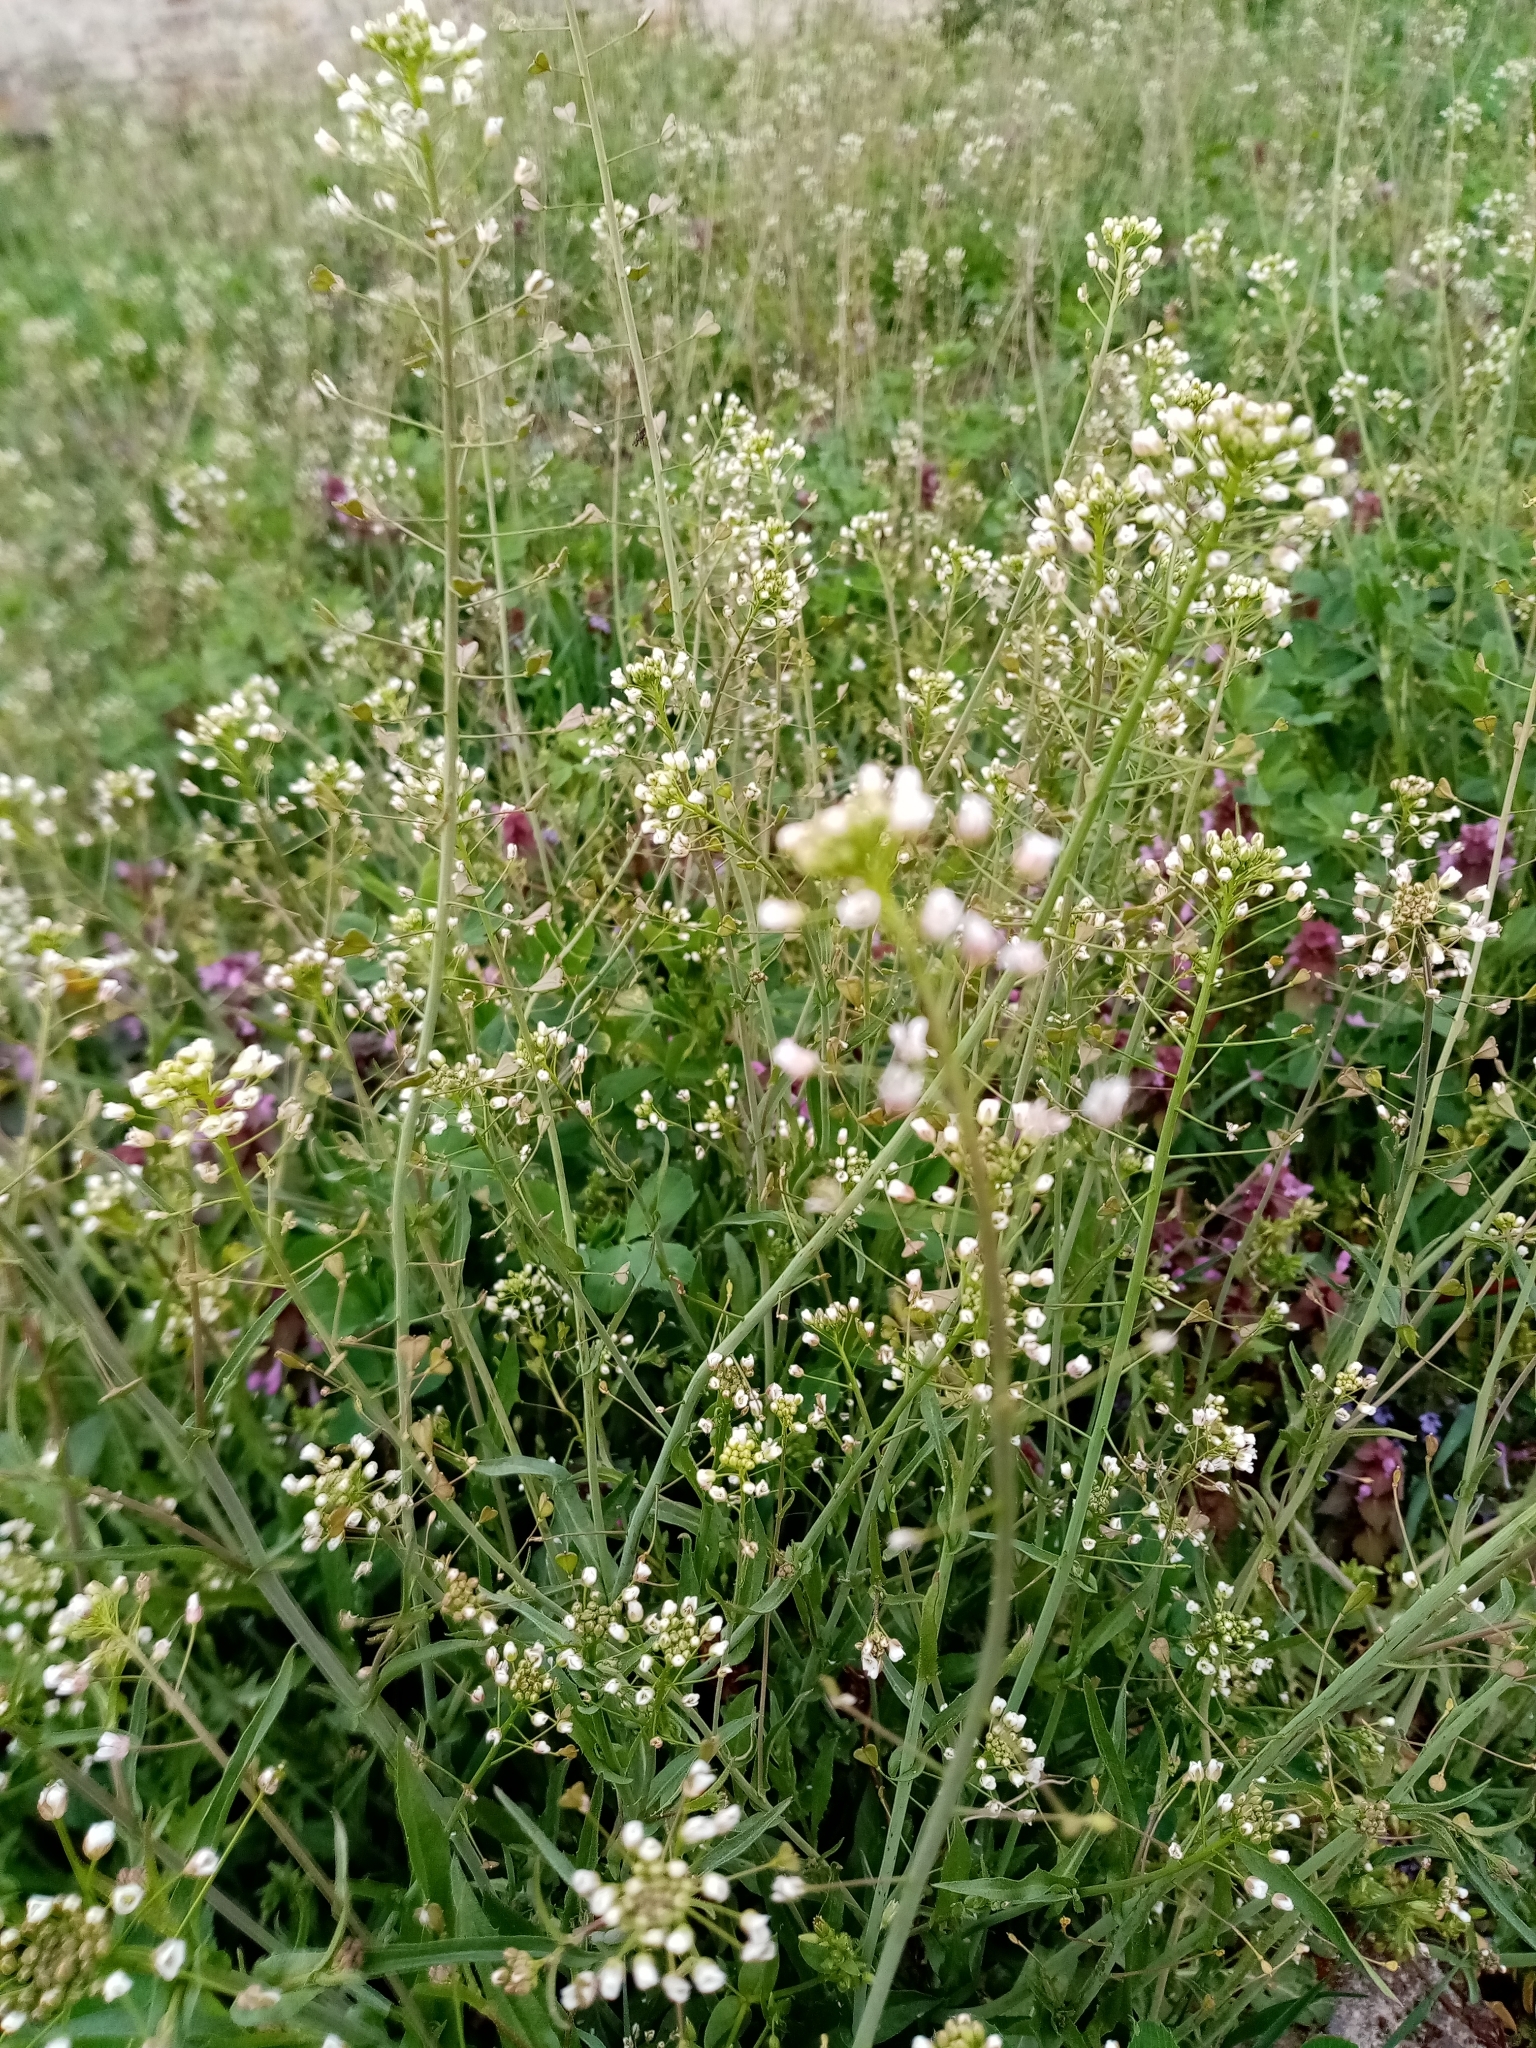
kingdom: Plantae
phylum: Tracheophyta
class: Magnoliopsida
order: Brassicales
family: Brassicaceae
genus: Capsella
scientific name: Capsella bursa-pastoris
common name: Shepherd's purse
